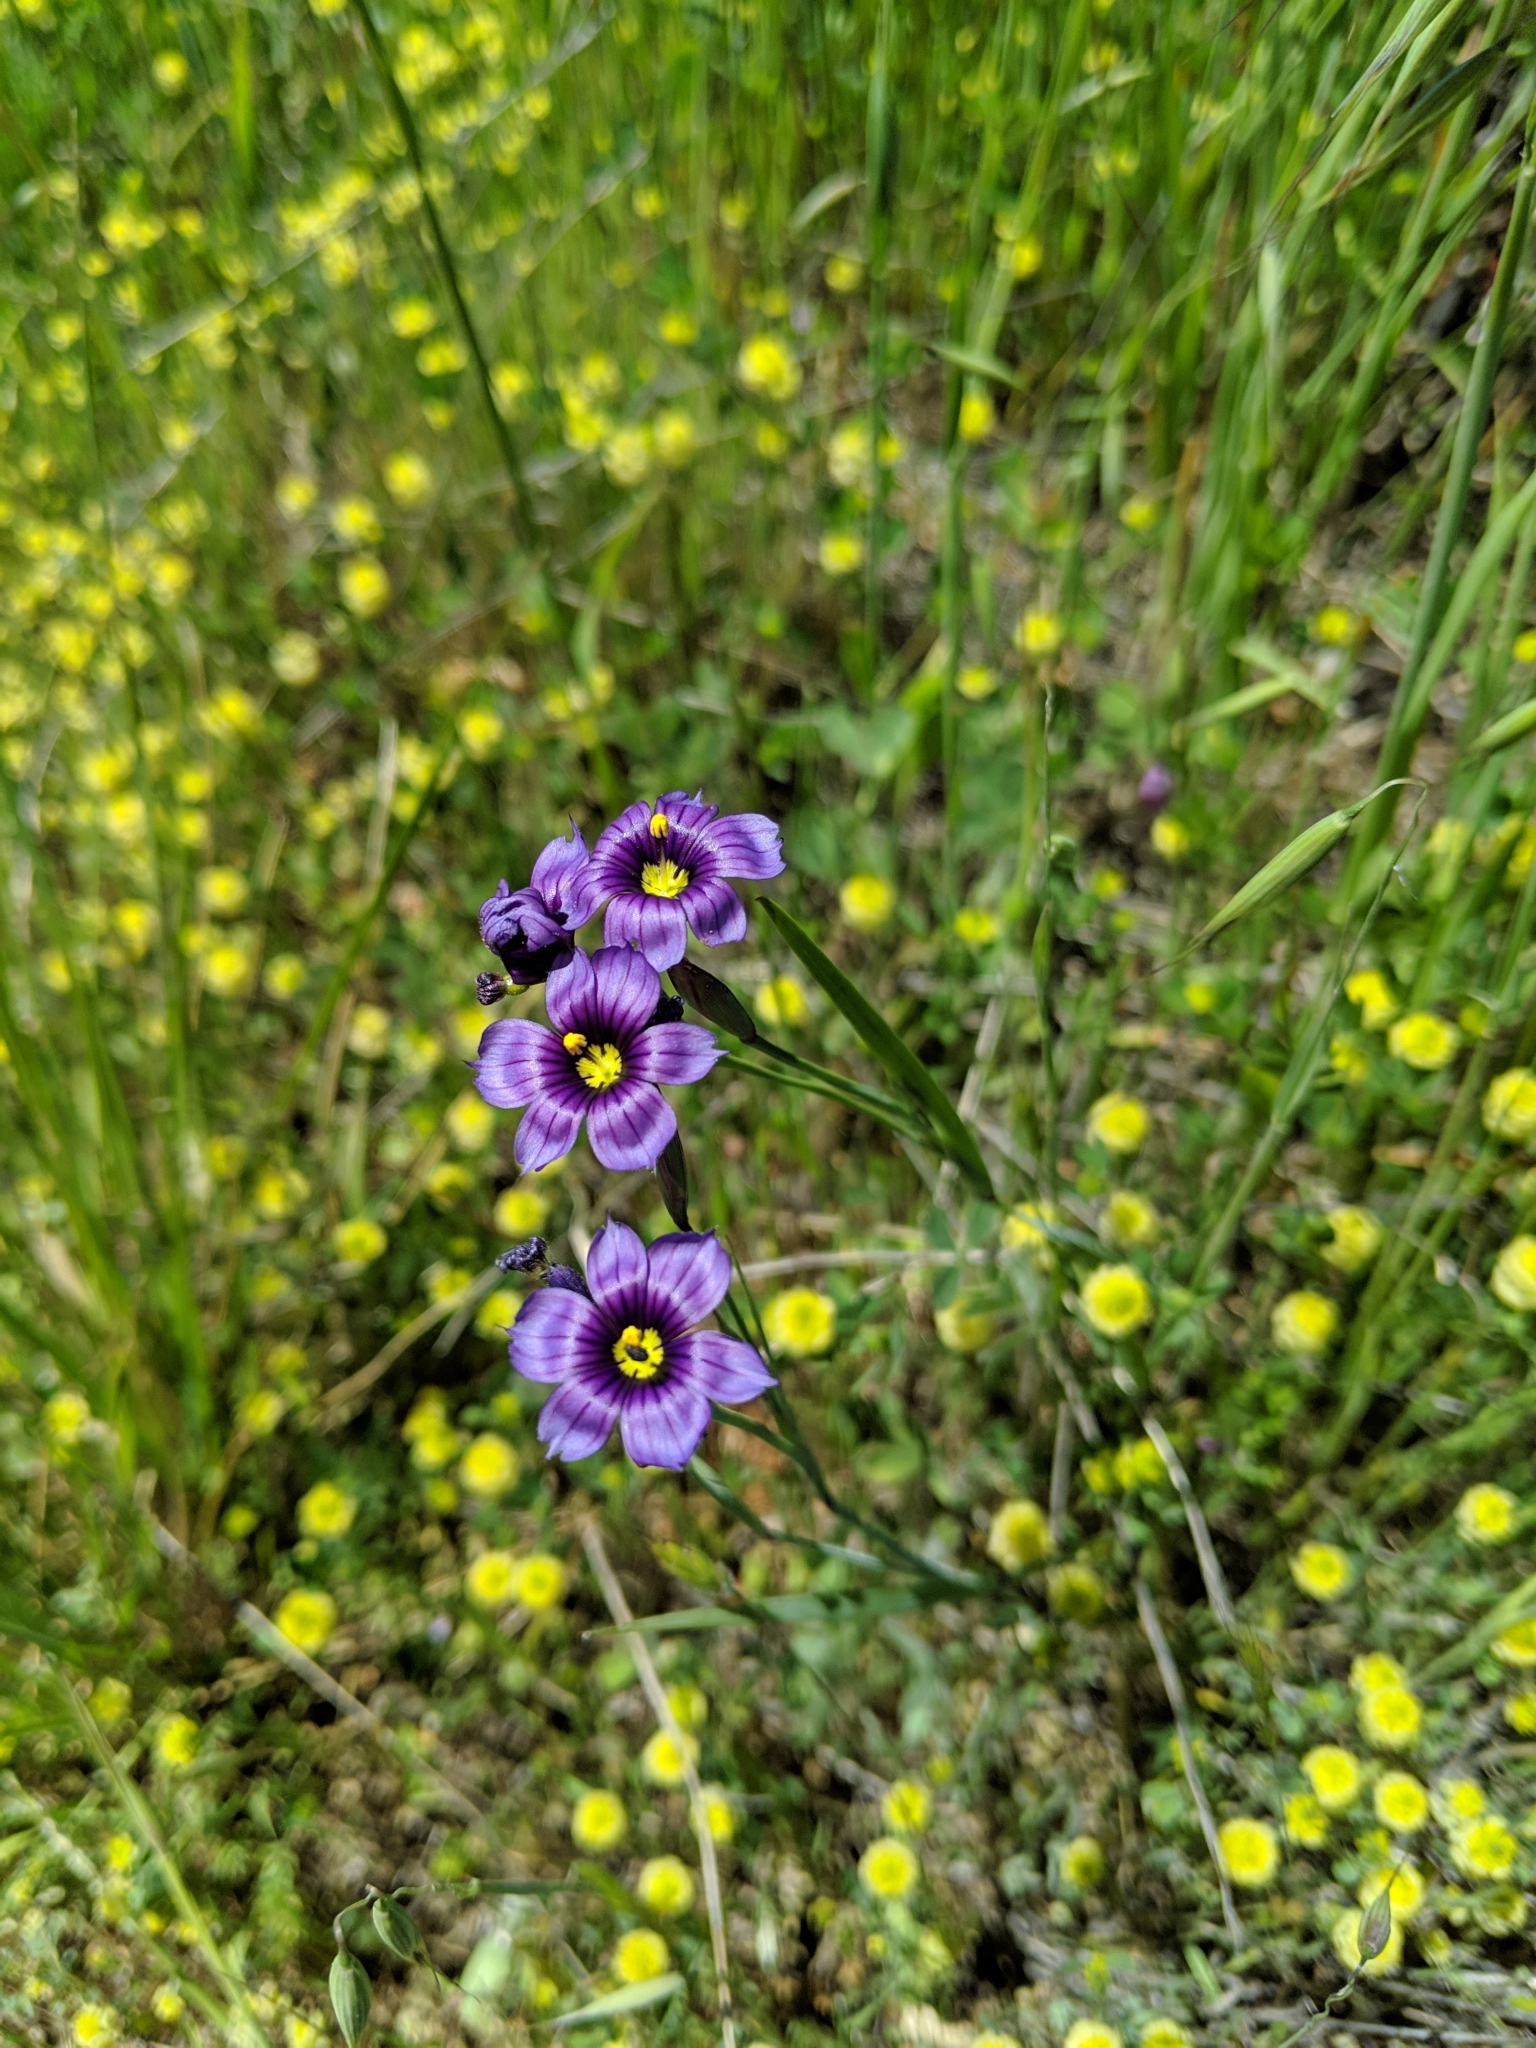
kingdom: Plantae
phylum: Tracheophyta
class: Liliopsida
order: Asparagales
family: Iridaceae
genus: Sisyrinchium
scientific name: Sisyrinchium bellum
